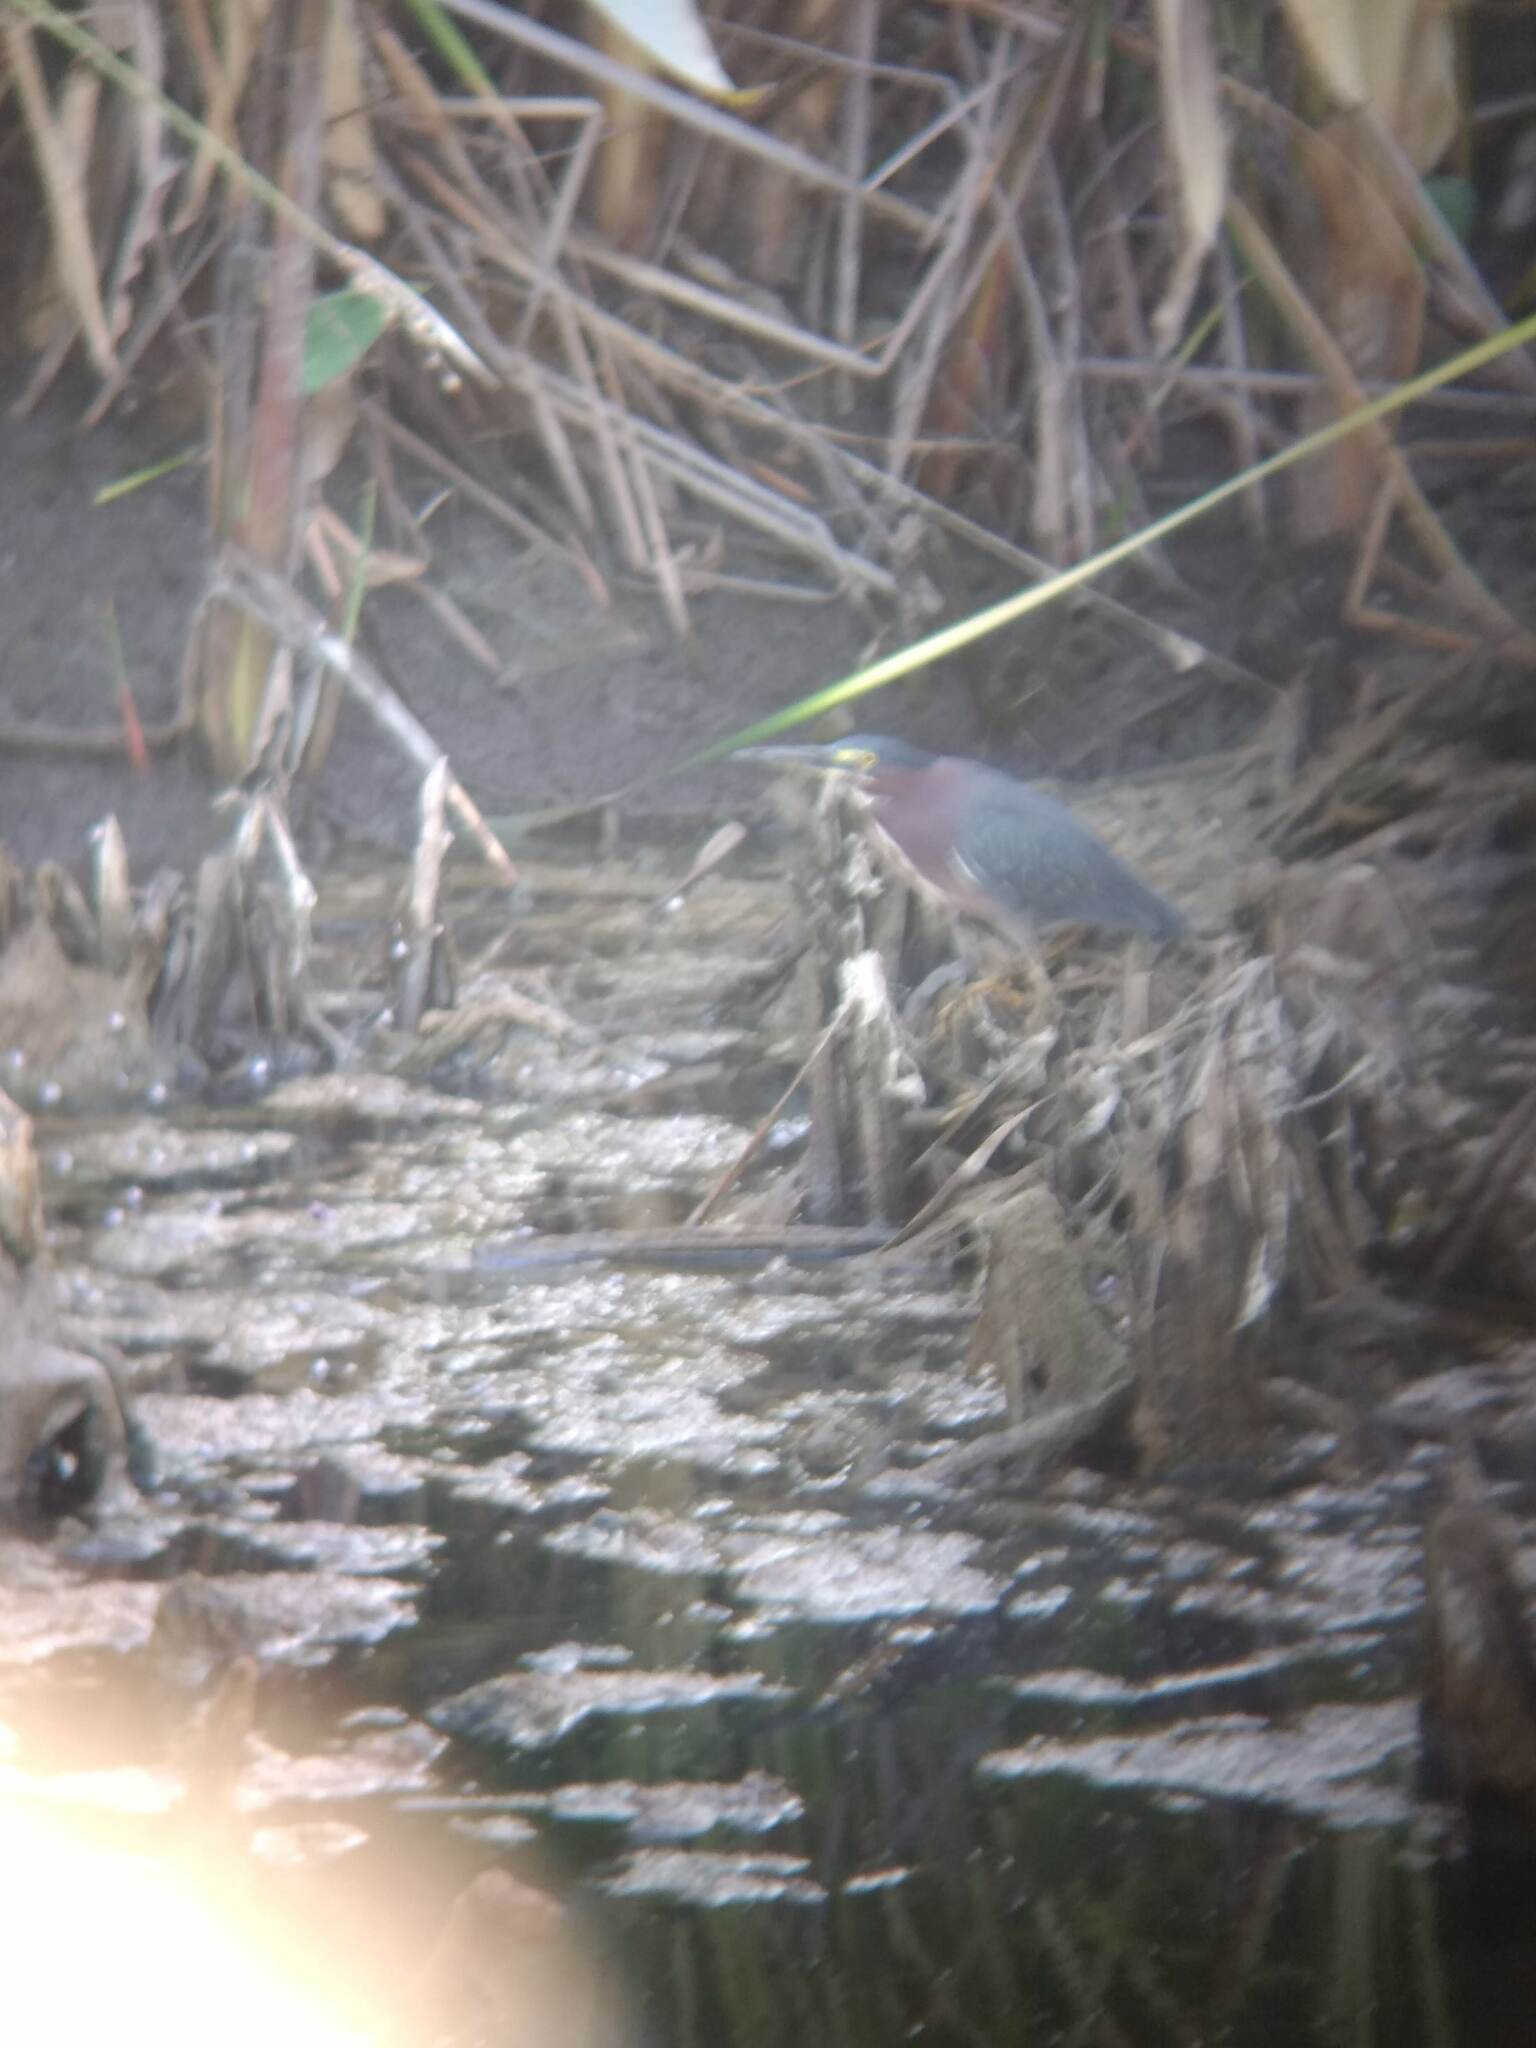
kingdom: Animalia
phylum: Chordata
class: Aves
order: Pelecaniformes
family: Ardeidae
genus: Butorides
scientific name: Butorides virescens
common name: Green heron
